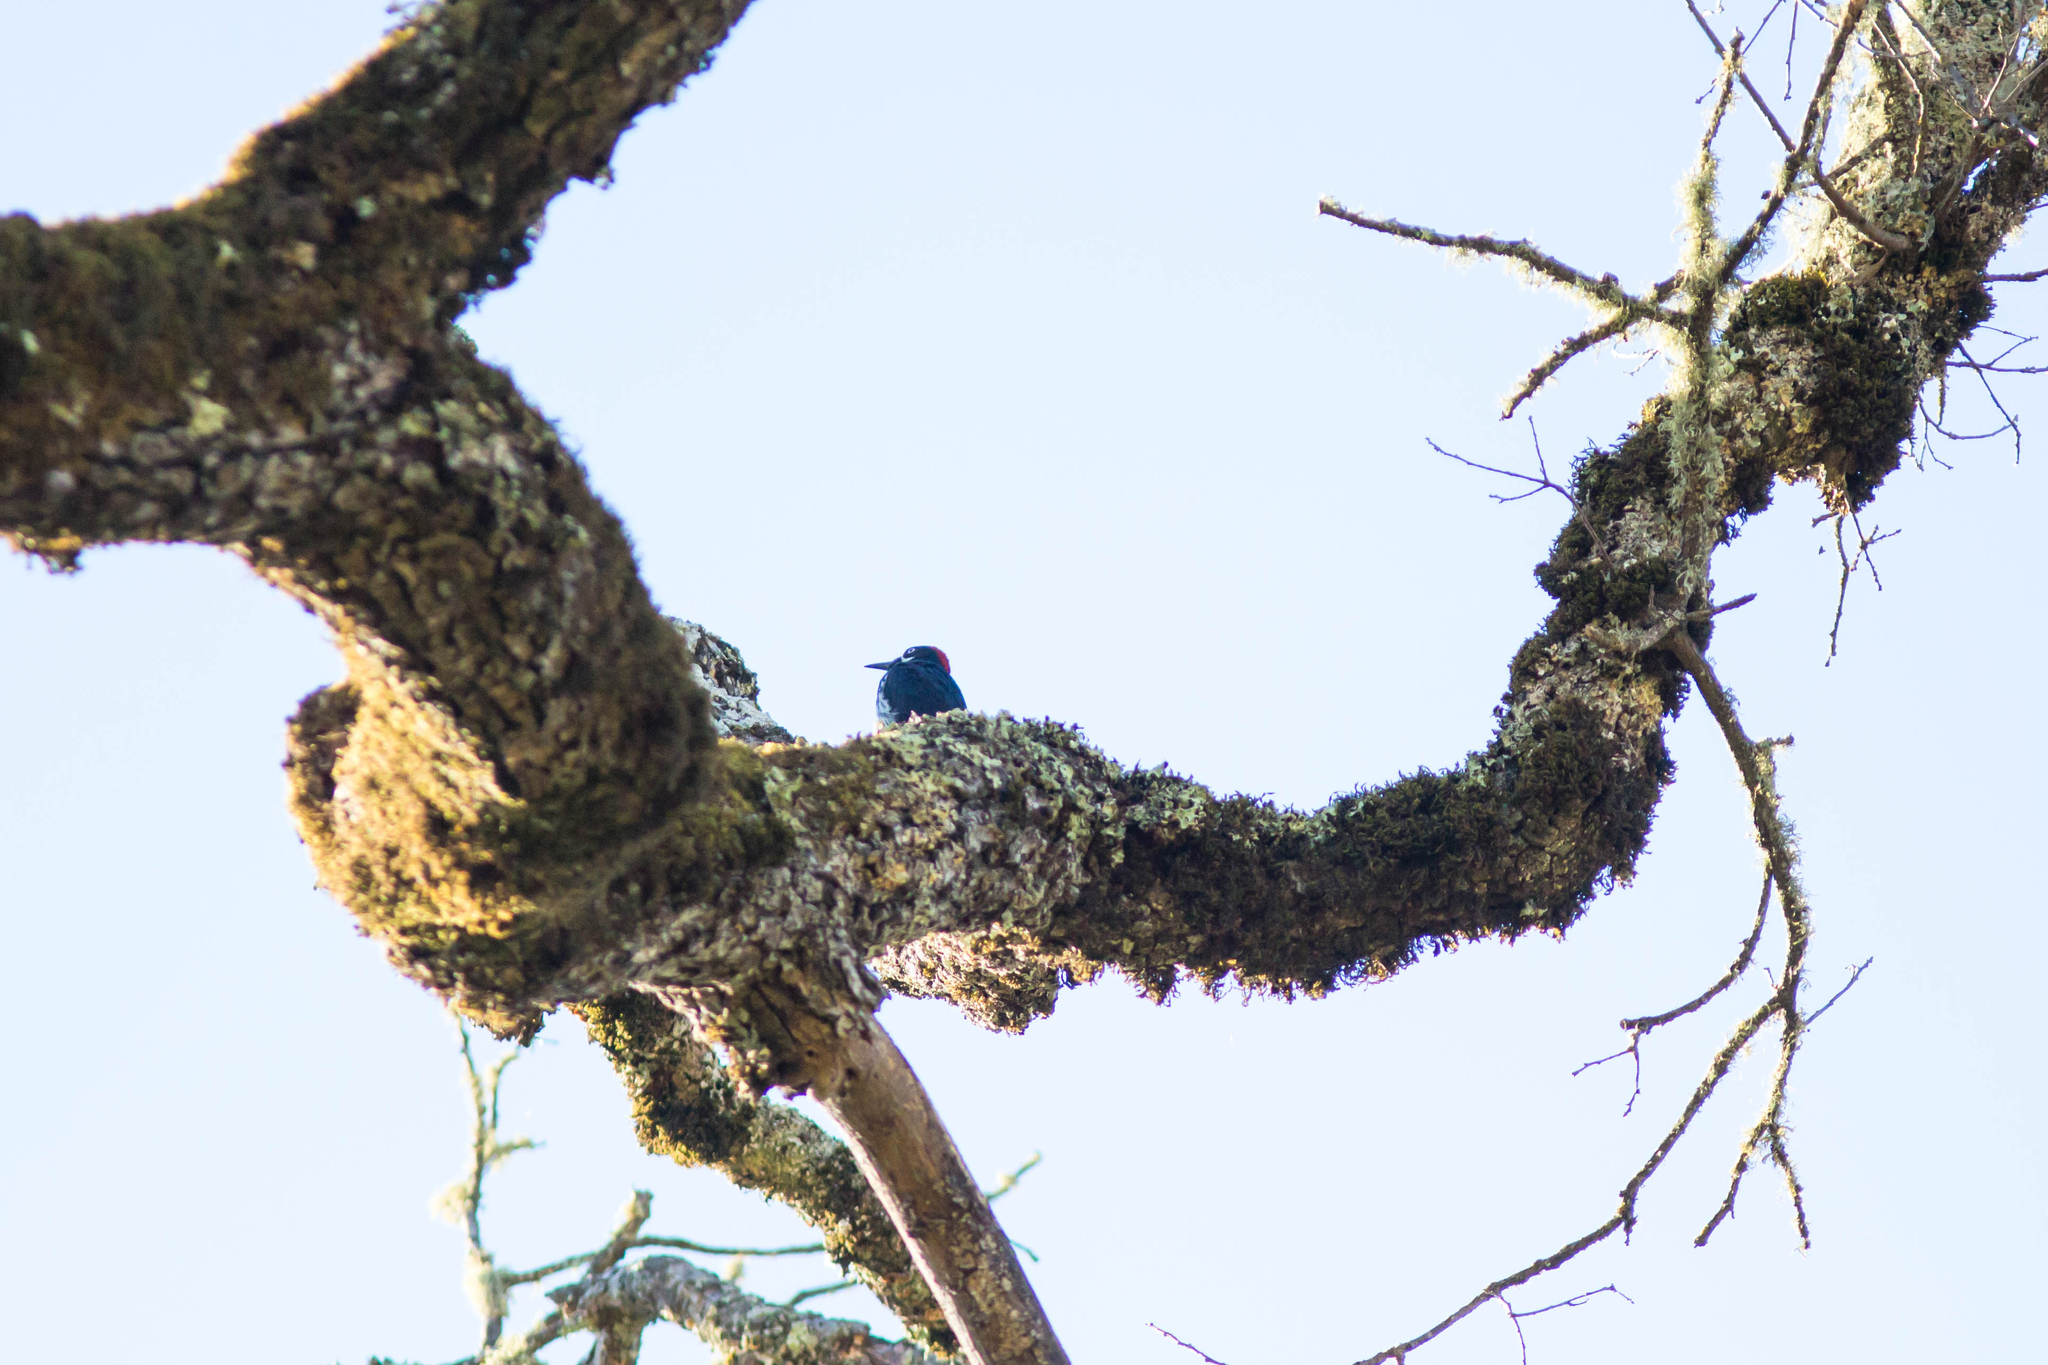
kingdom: Animalia
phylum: Chordata
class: Aves
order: Piciformes
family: Picidae
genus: Melanerpes
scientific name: Melanerpes formicivorus
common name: Acorn woodpecker
